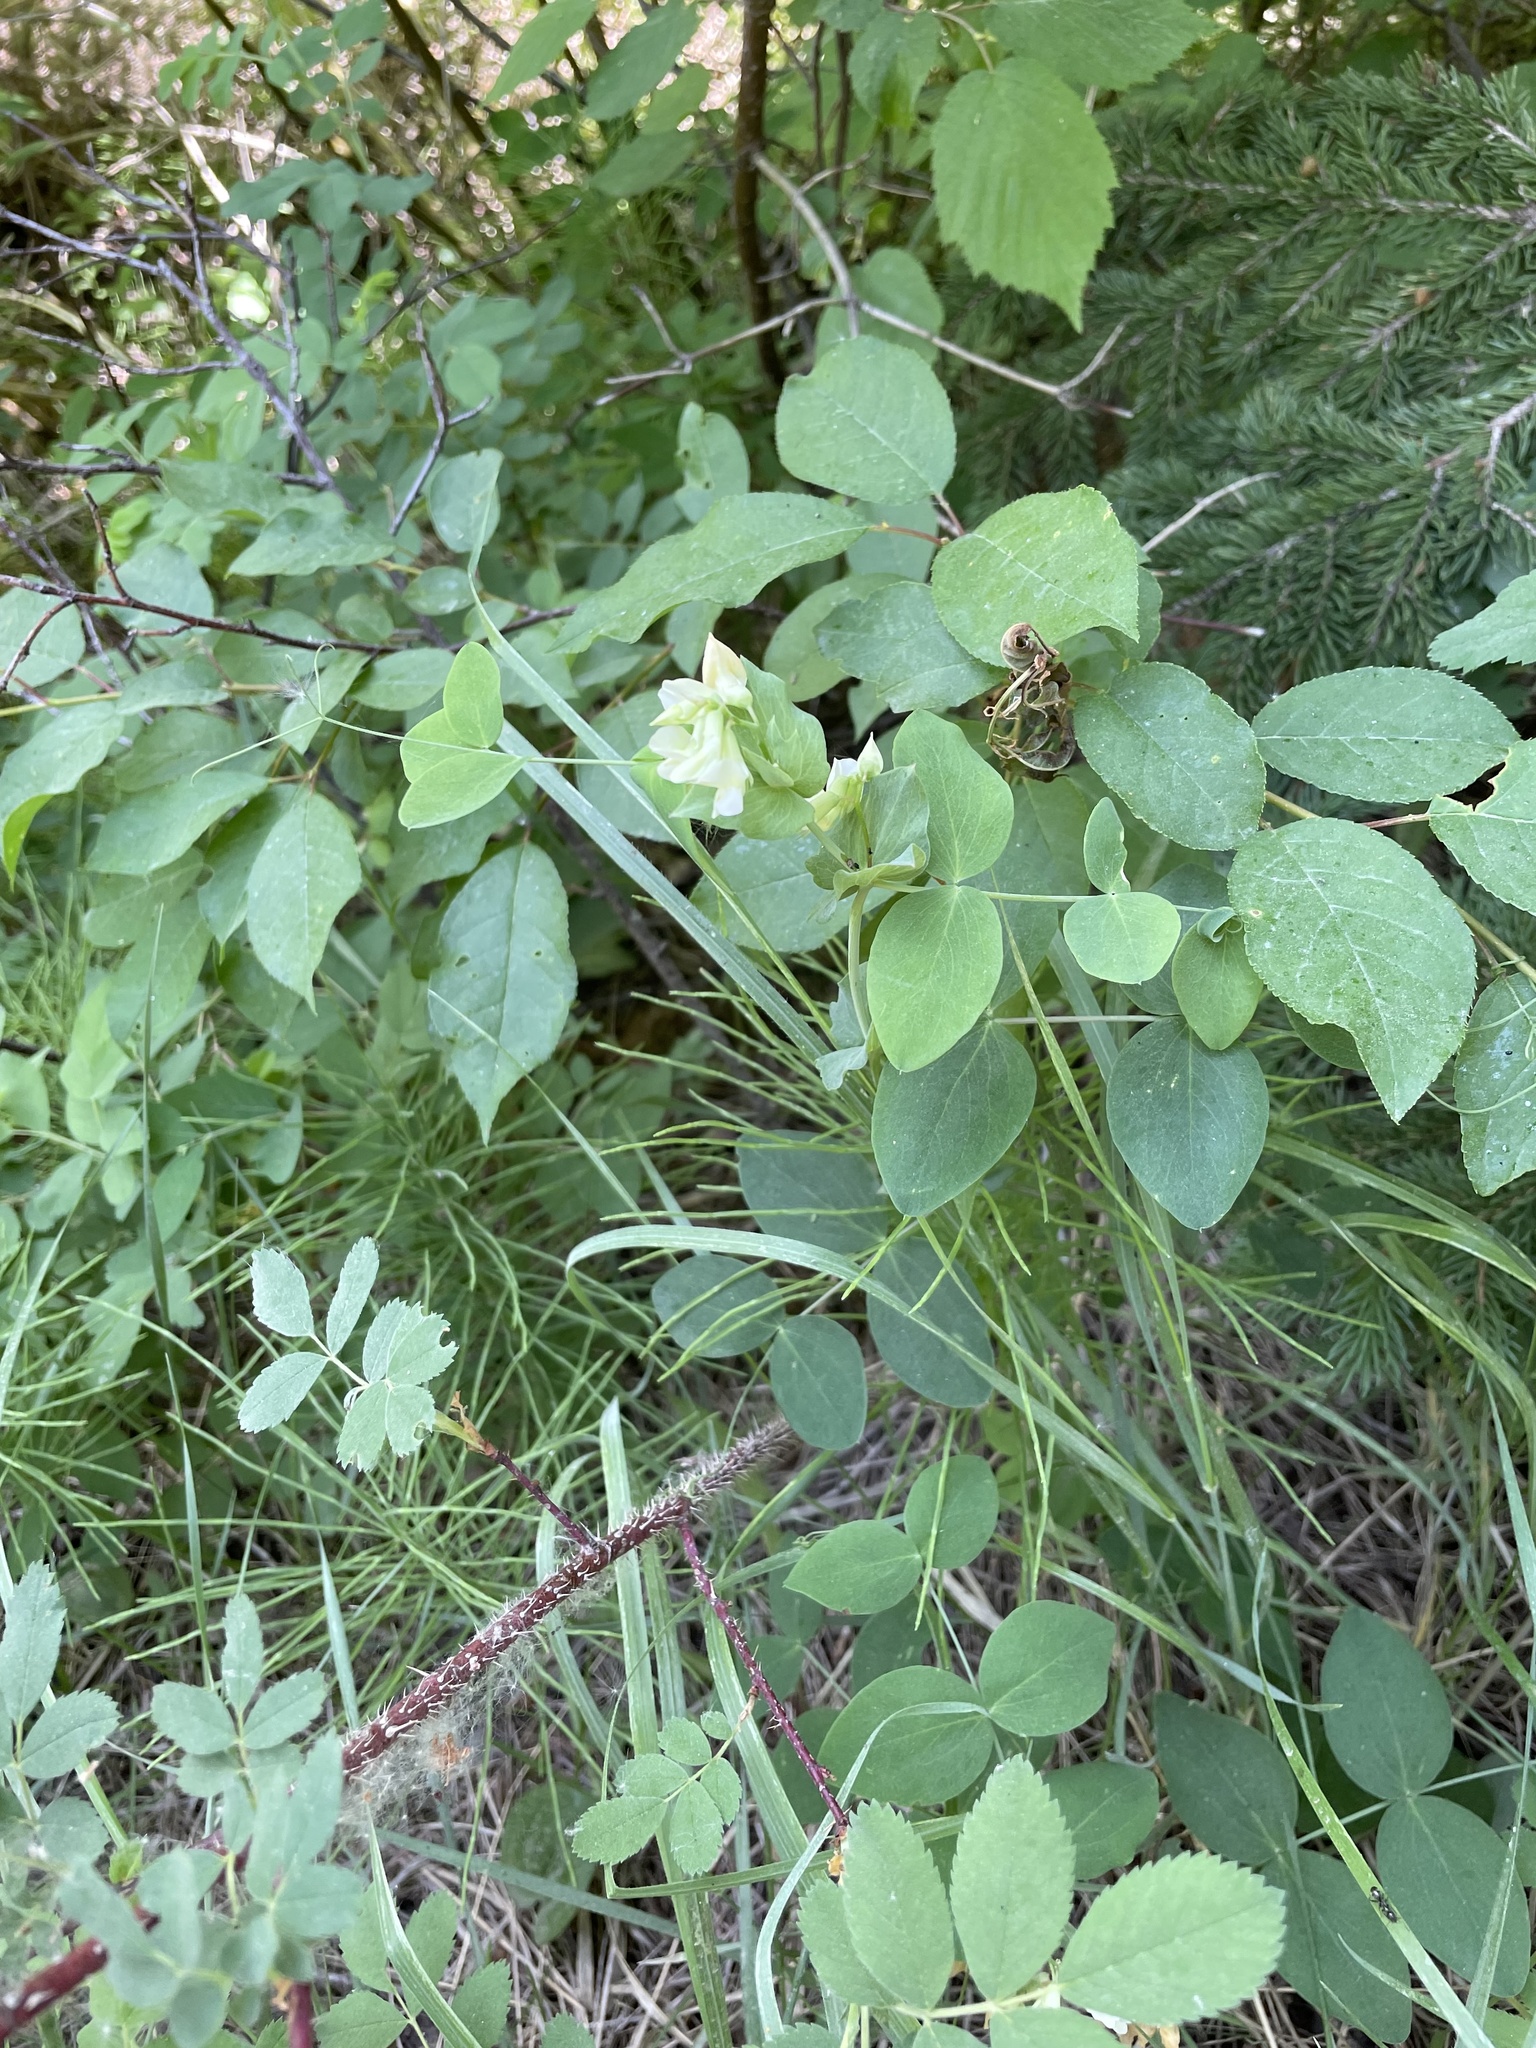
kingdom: Plantae
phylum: Tracheophyta
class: Magnoliopsida
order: Fabales
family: Fabaceae
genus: Lathyrus
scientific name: Lathyrus ochroleucus
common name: Pale vetchling
